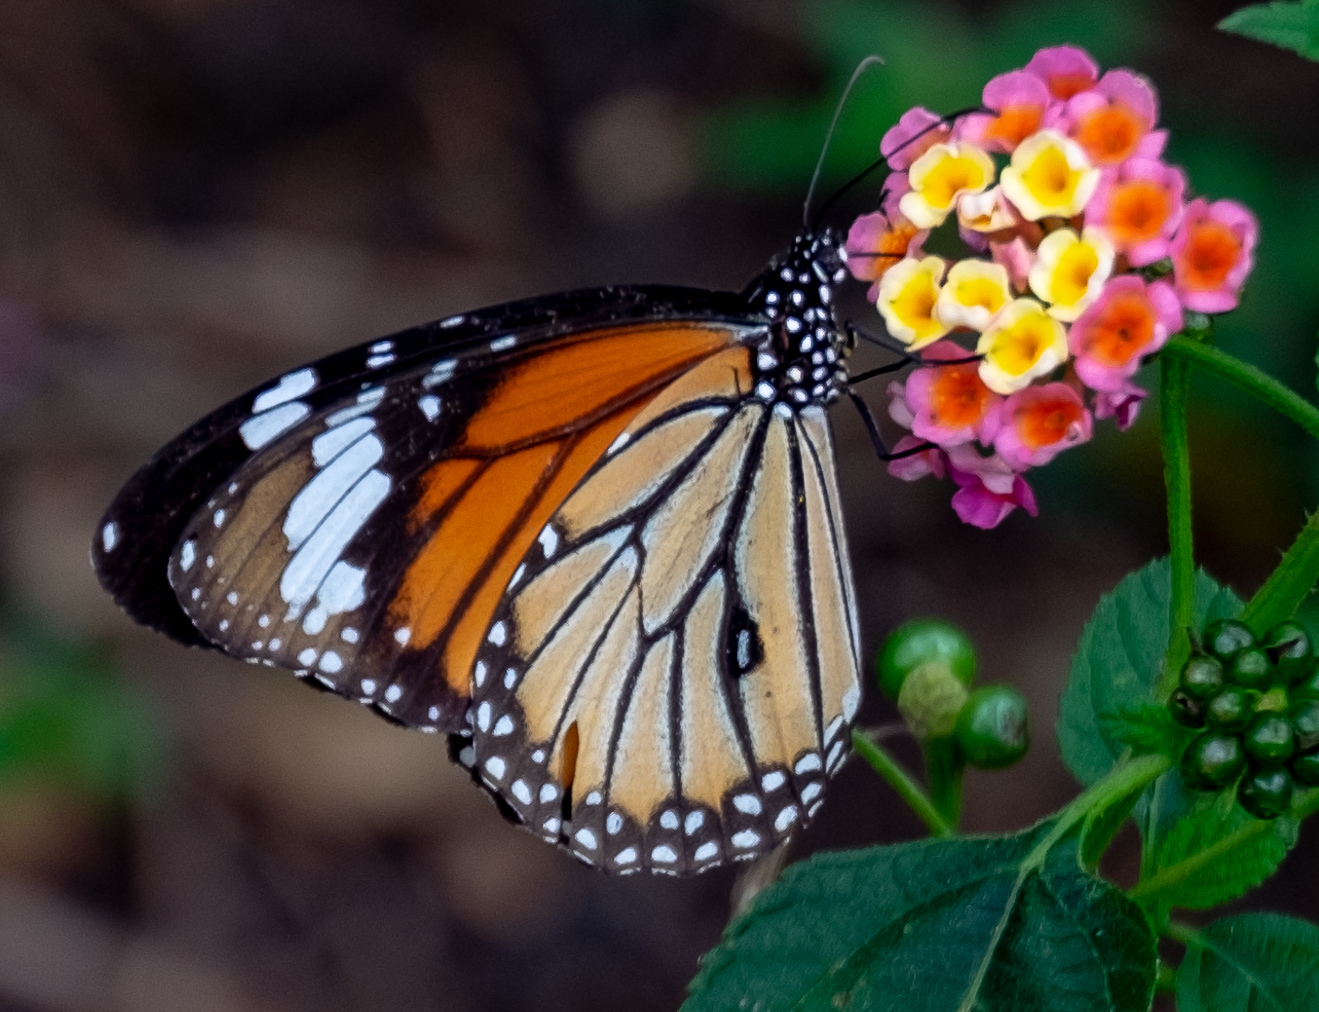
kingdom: Animalia
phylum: Arthropoda
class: Insecta
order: Lepidoptera
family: Nymphalidae
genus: Danaus
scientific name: Danaus genutia
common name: Common tiger butterfly
